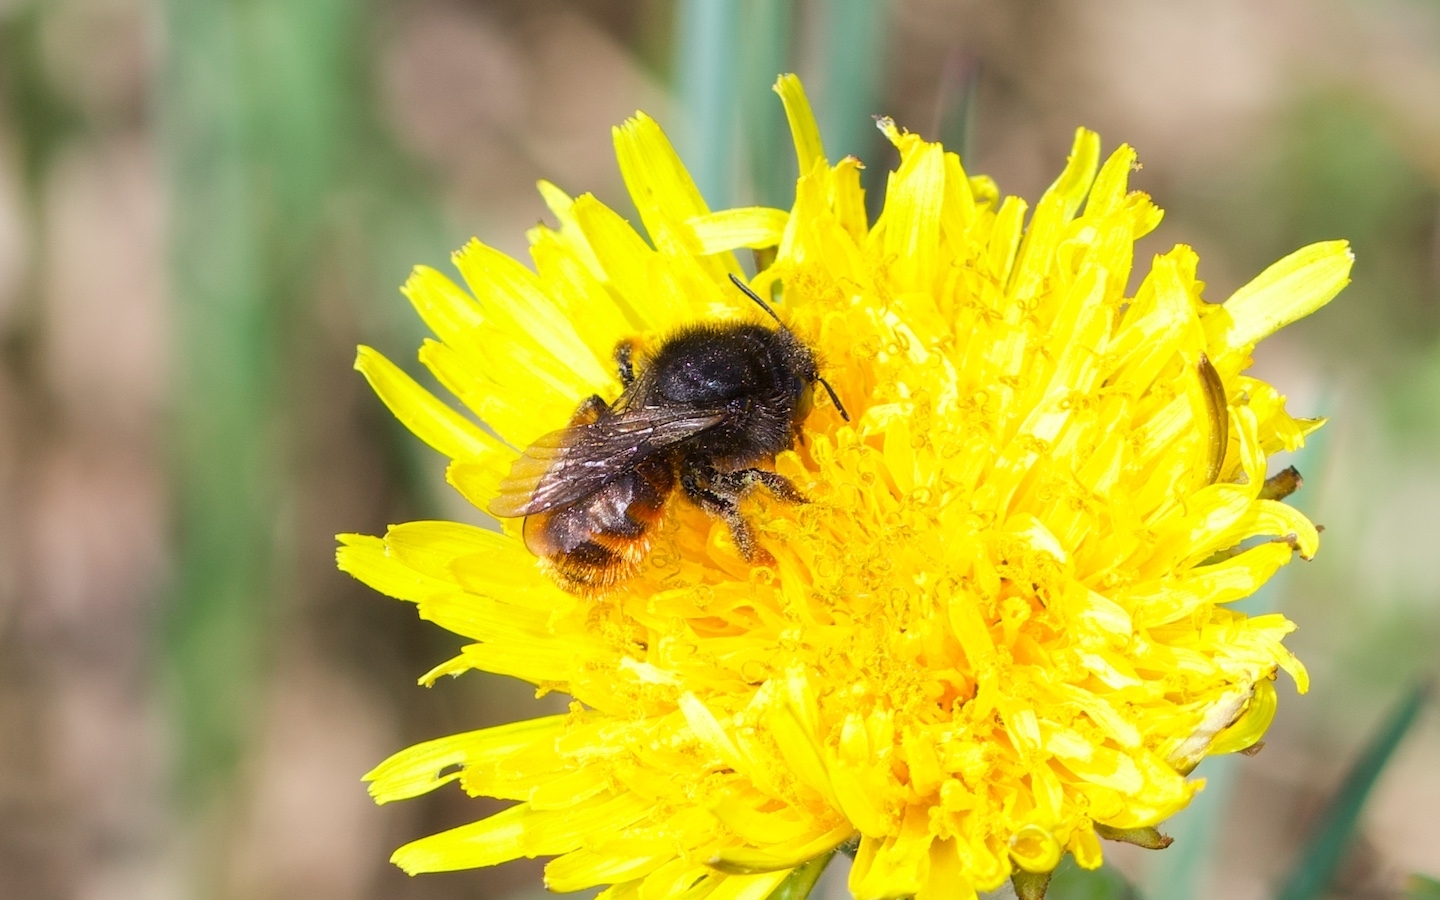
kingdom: Animalia
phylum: Arthropoda
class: Insecta
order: Hymenoptera
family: Megachilidae
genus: Osmia
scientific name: Osmia bicolor
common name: Red-tailed mason bee
